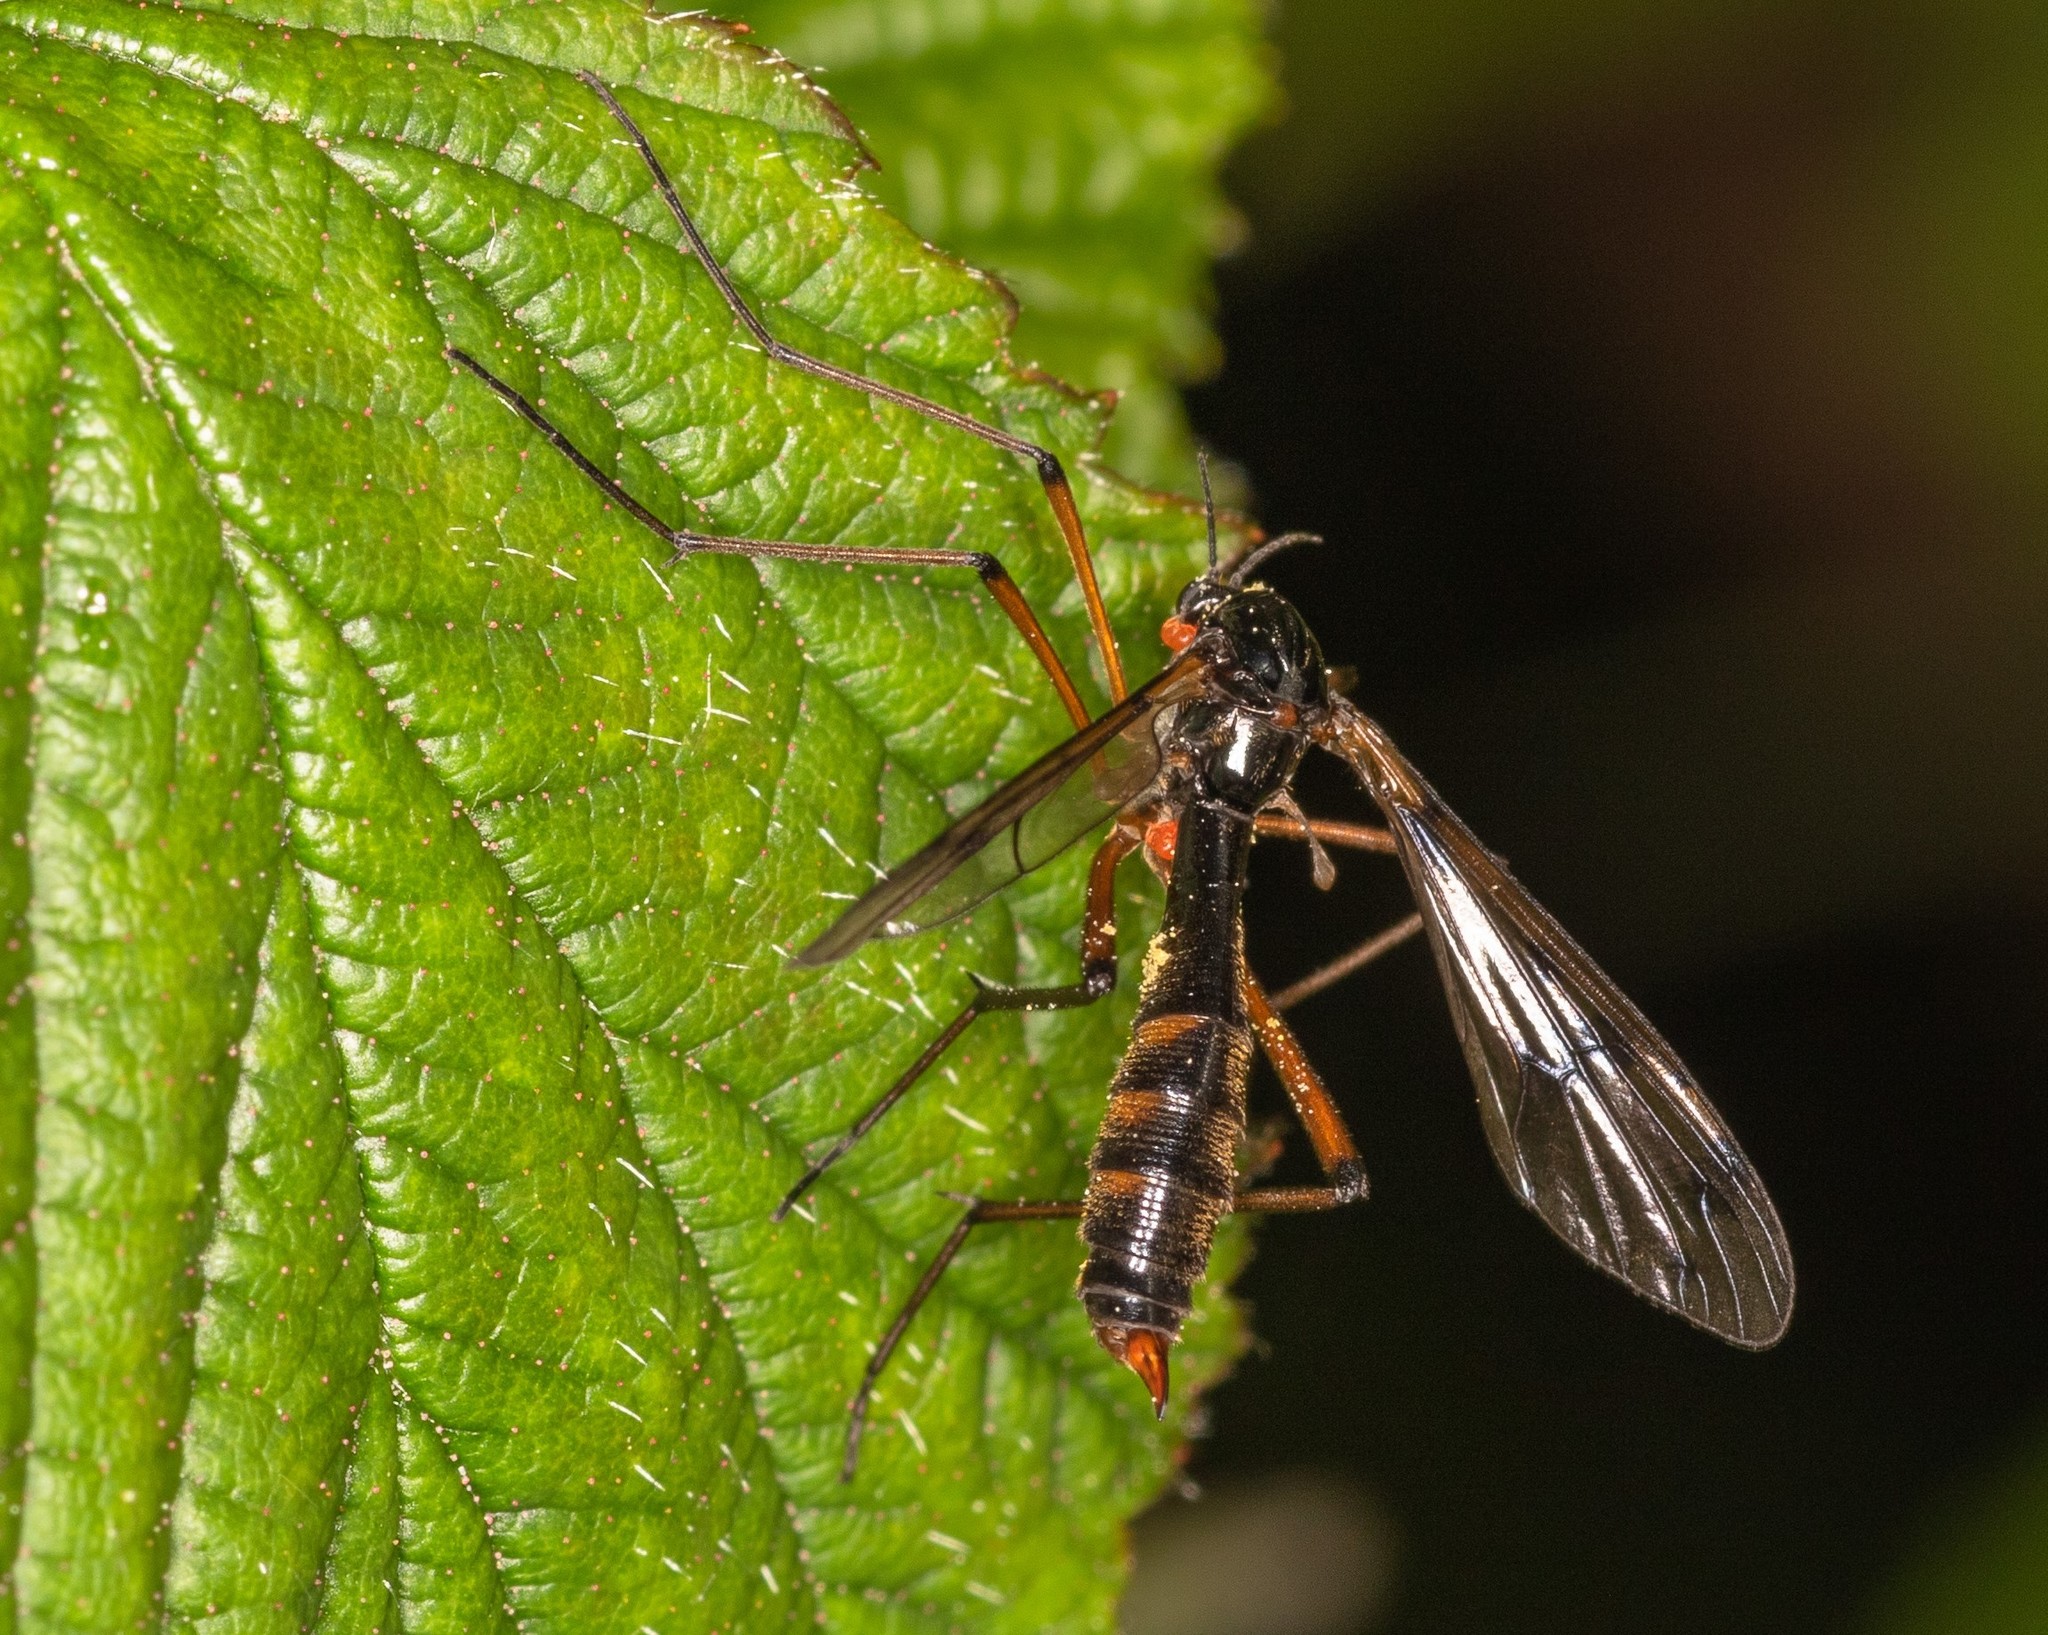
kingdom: Animalia
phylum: Arthropoda
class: Insecta
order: Diptera
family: Ptychopteridae
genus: Ptychoptera
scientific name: Ptychoptera contaminata
